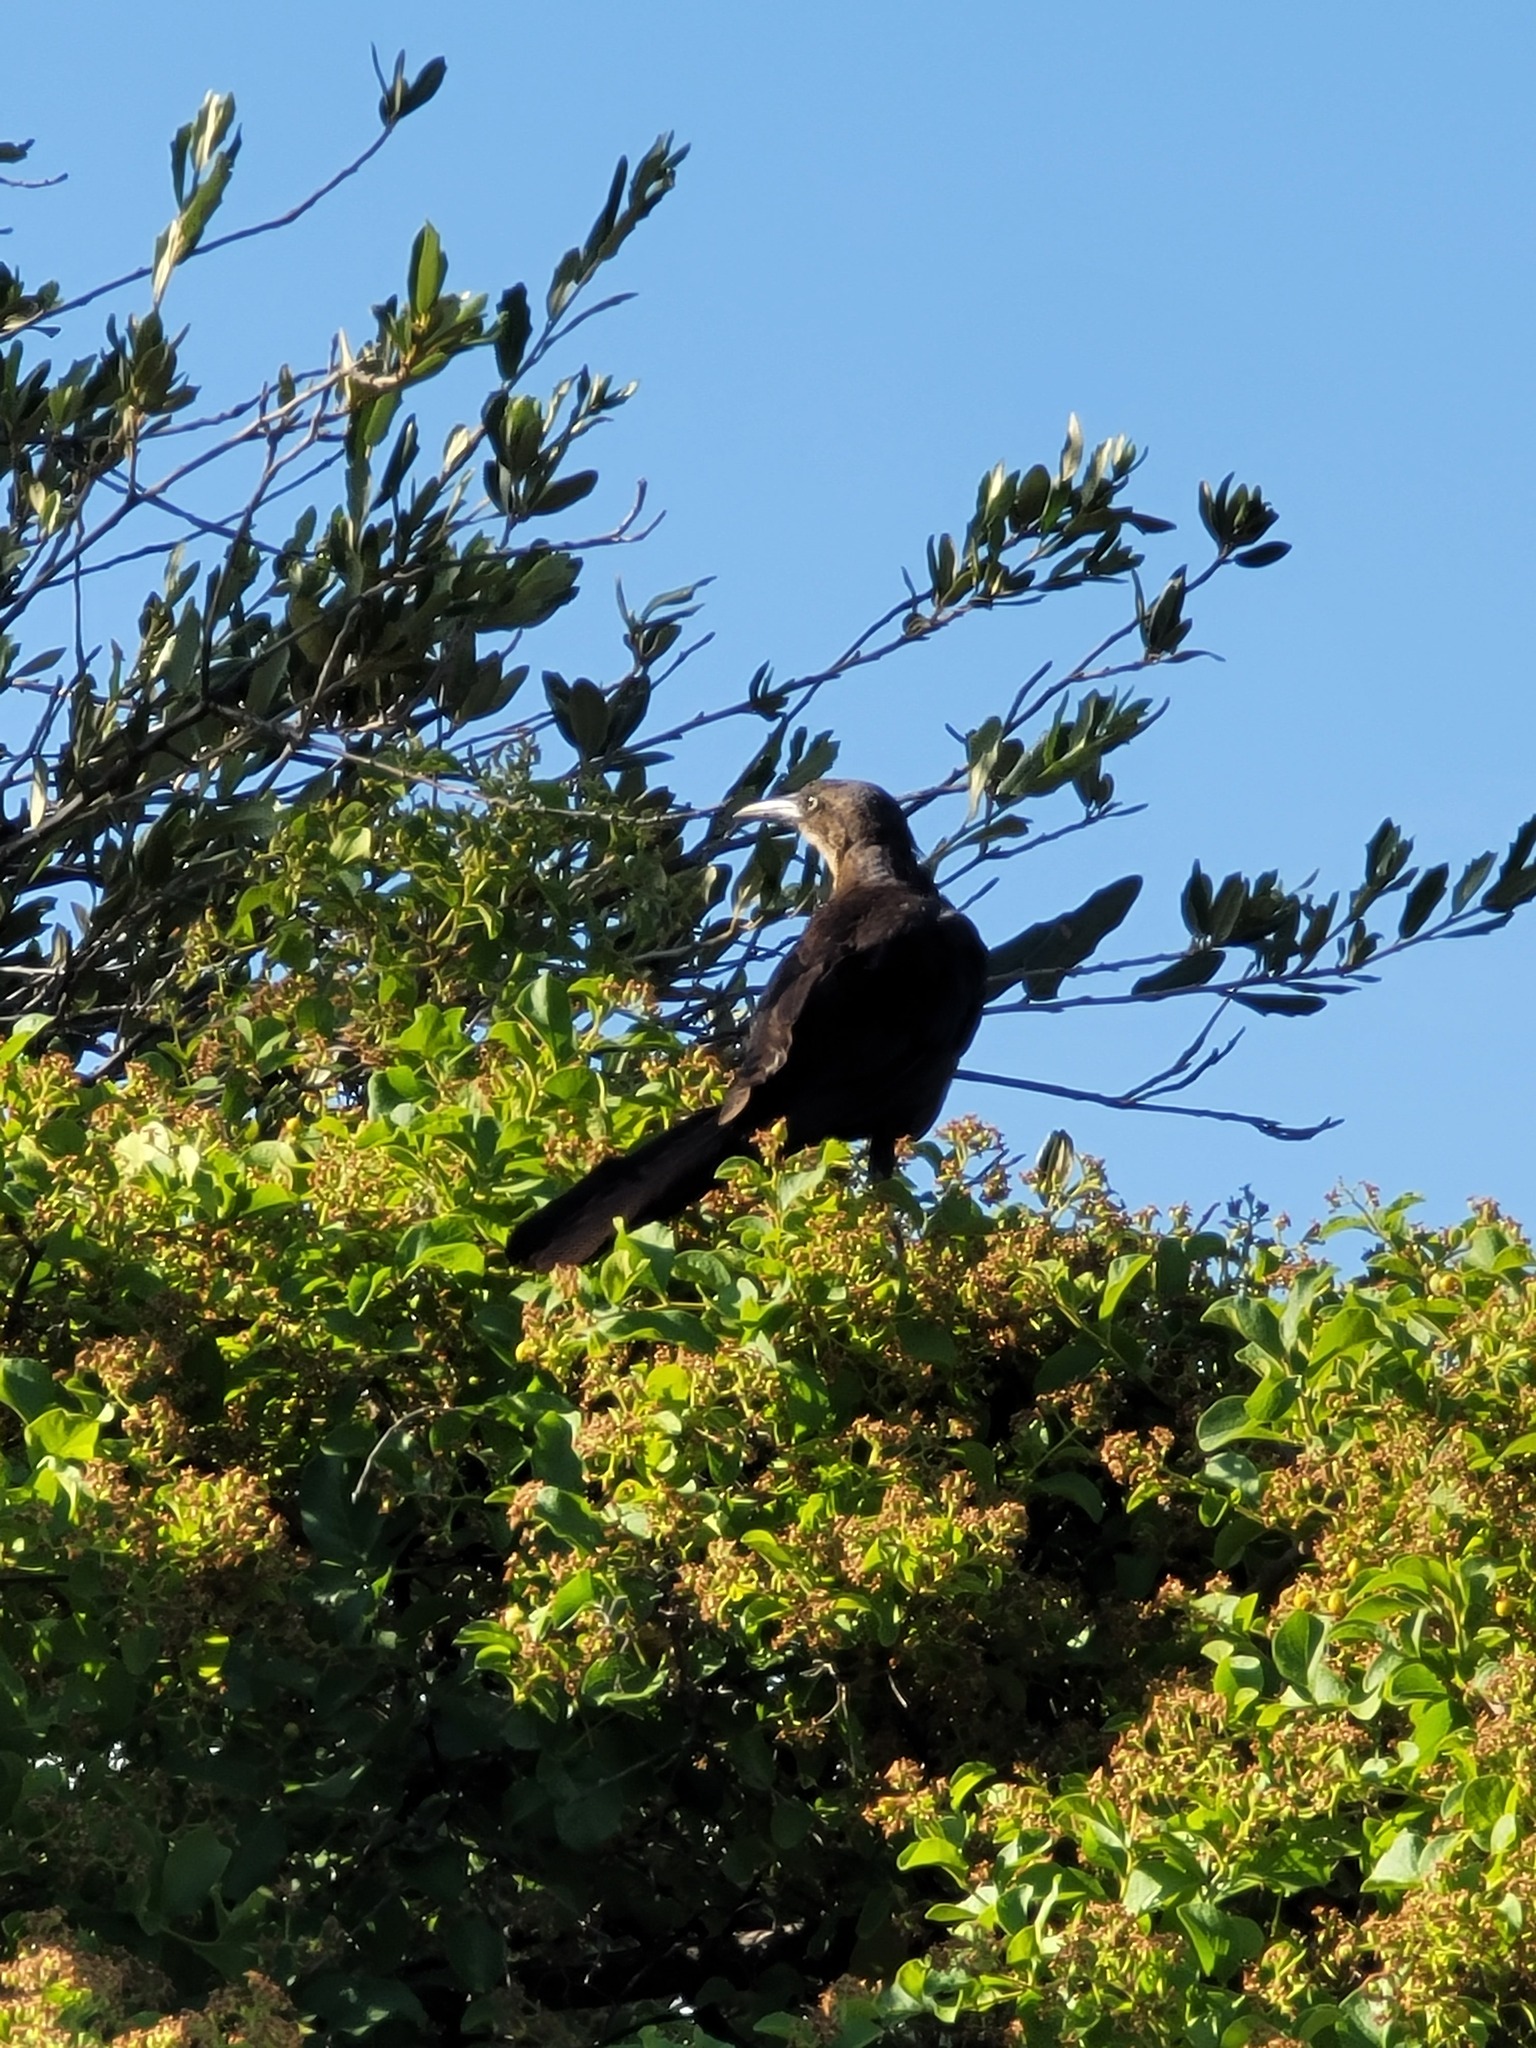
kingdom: Animalia
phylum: Chordata
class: Aves
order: Passeriformes
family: Icteridae
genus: Quiscalus
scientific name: Quiscalus mexicanus
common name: Great-tailed grackle
